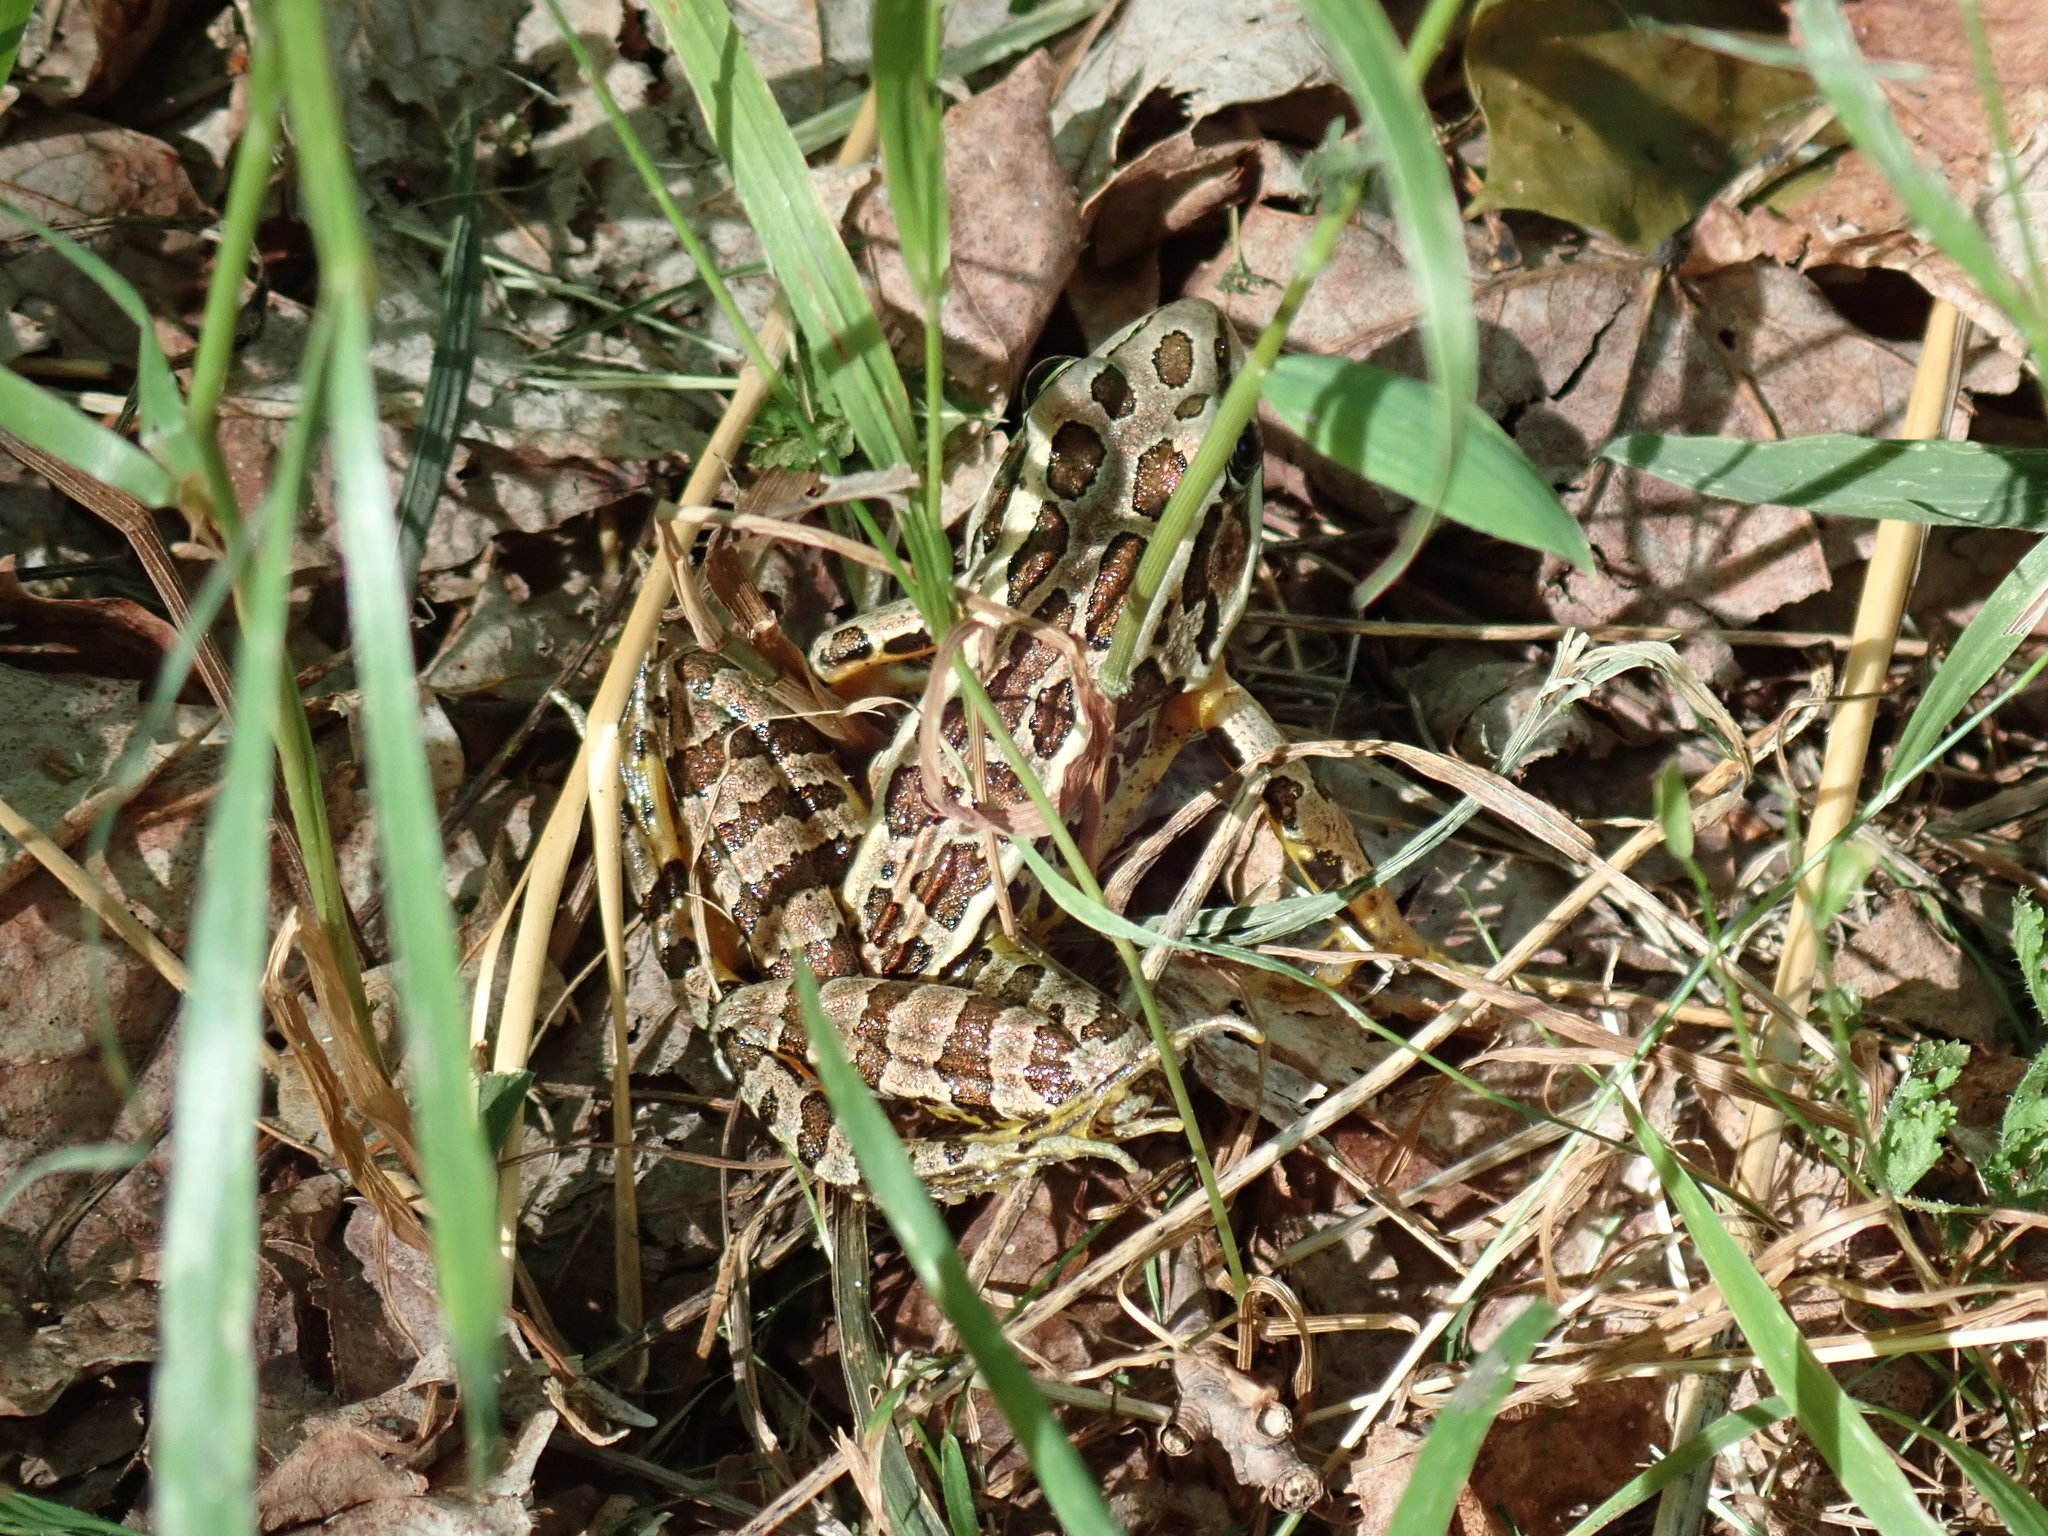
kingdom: Animalia
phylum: Chordata
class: Amphibia
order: Anura
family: Ranidae
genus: Lithobates
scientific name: Lithobates palustris
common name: Pickerel frog
